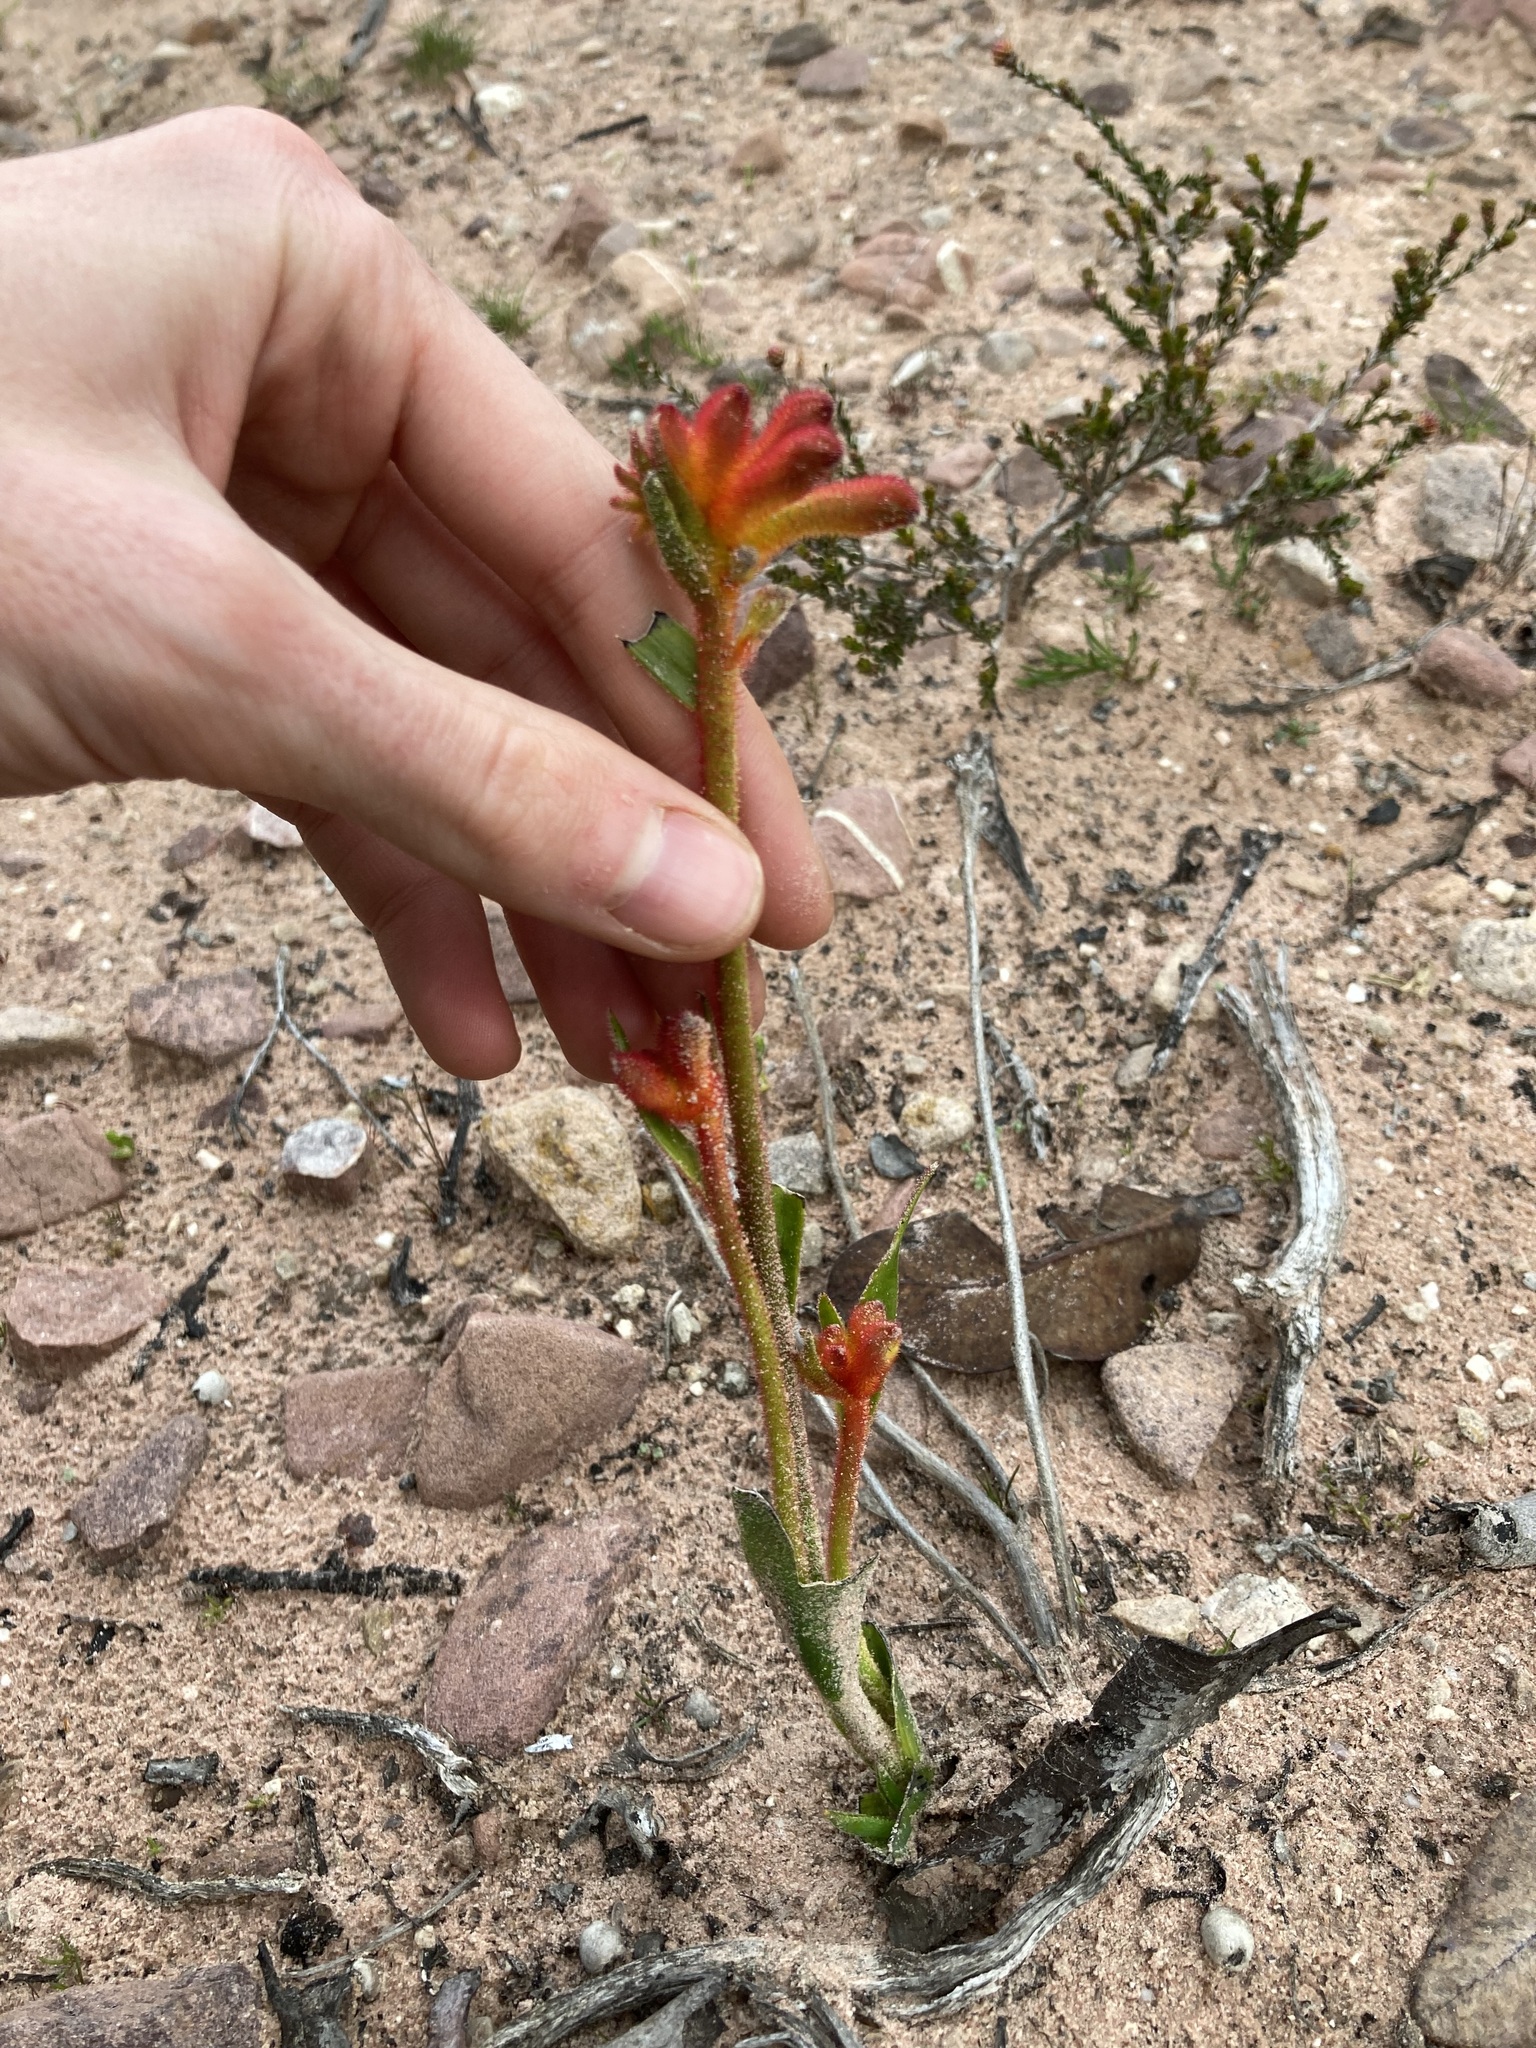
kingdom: Plantae
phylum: Tracheophyta
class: Liliopsida
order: Commelinales
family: Haemodoraceae
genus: Anigozanthos
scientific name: Anigozanthos humilis
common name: Cat's-paw
